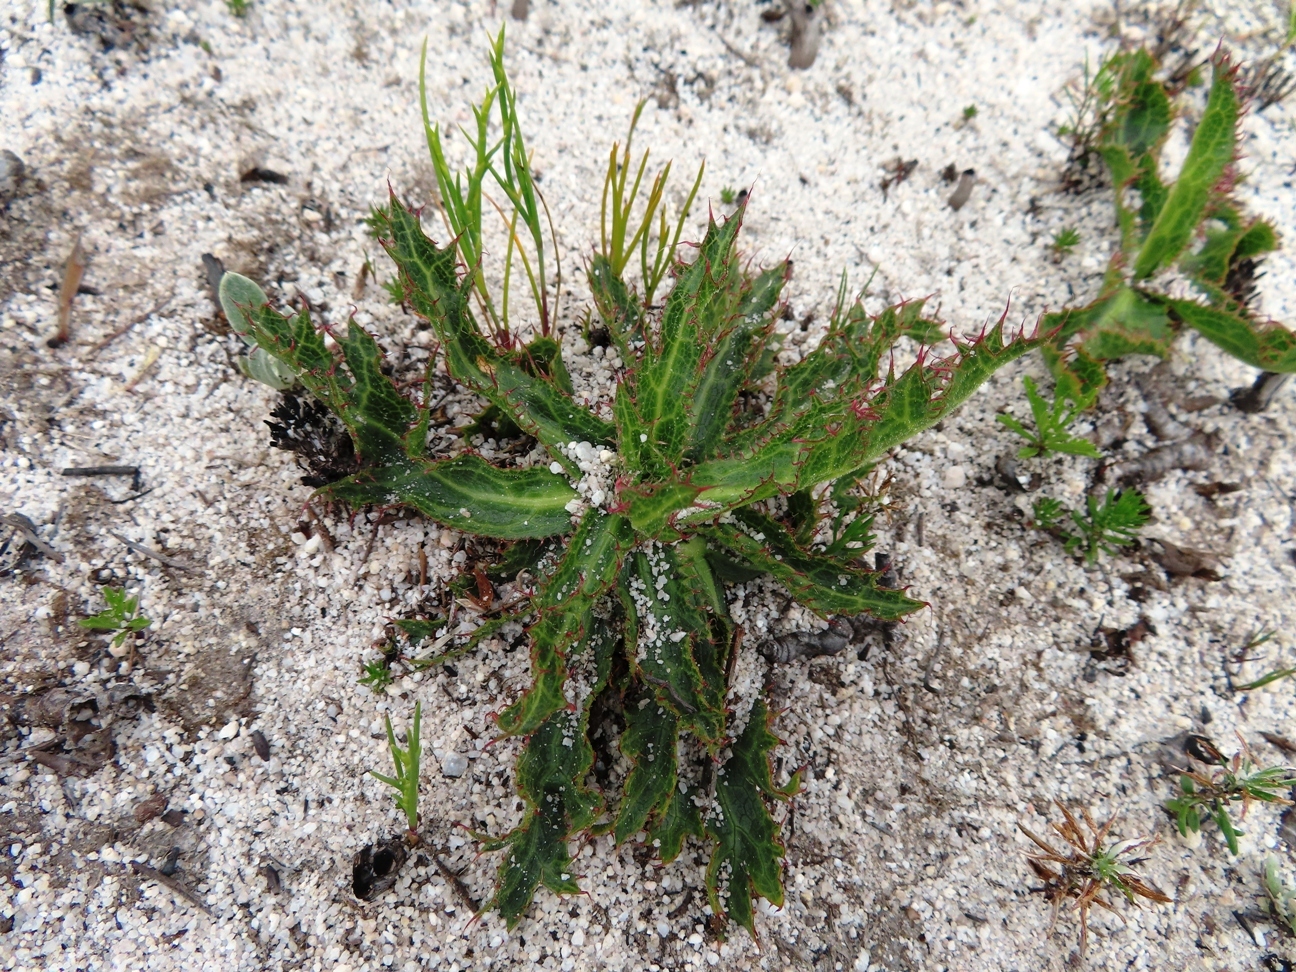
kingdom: Plantae
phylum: Tracheophyta
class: Magnoliopsida
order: Apiales
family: Apiaceae
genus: Lichtensteinia
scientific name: Lichtensteinia lacera
